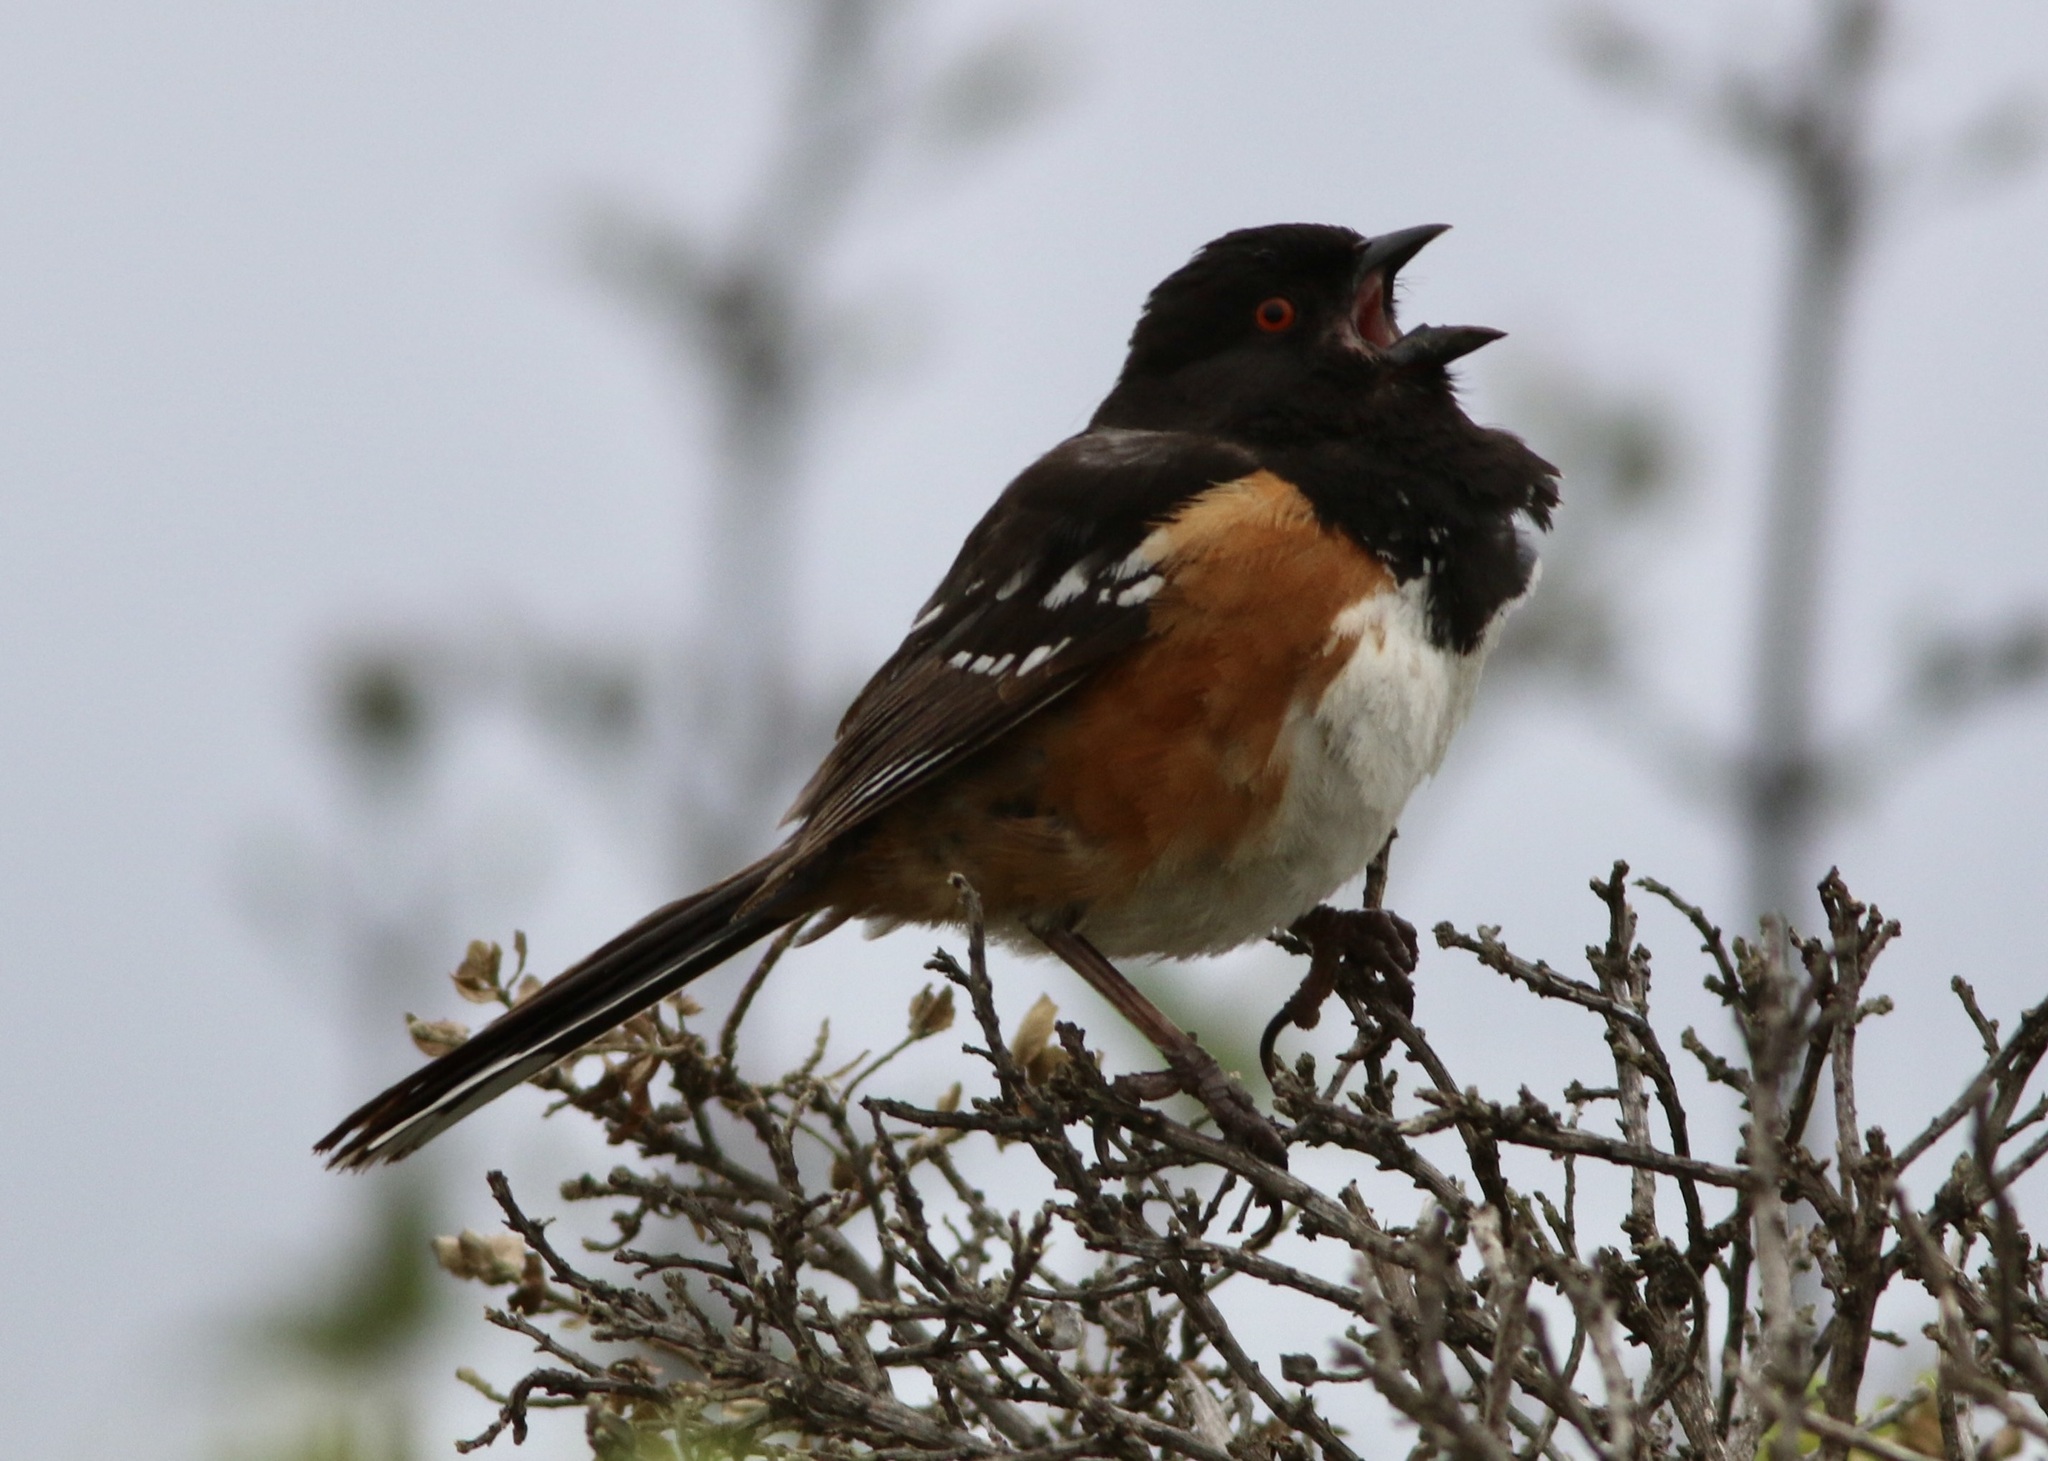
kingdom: Animalia
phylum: Chordata
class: Aves
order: Passeriformes
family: Passerellidae
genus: Pipilo
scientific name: Pipilo maculatus
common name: Spotted towhee
